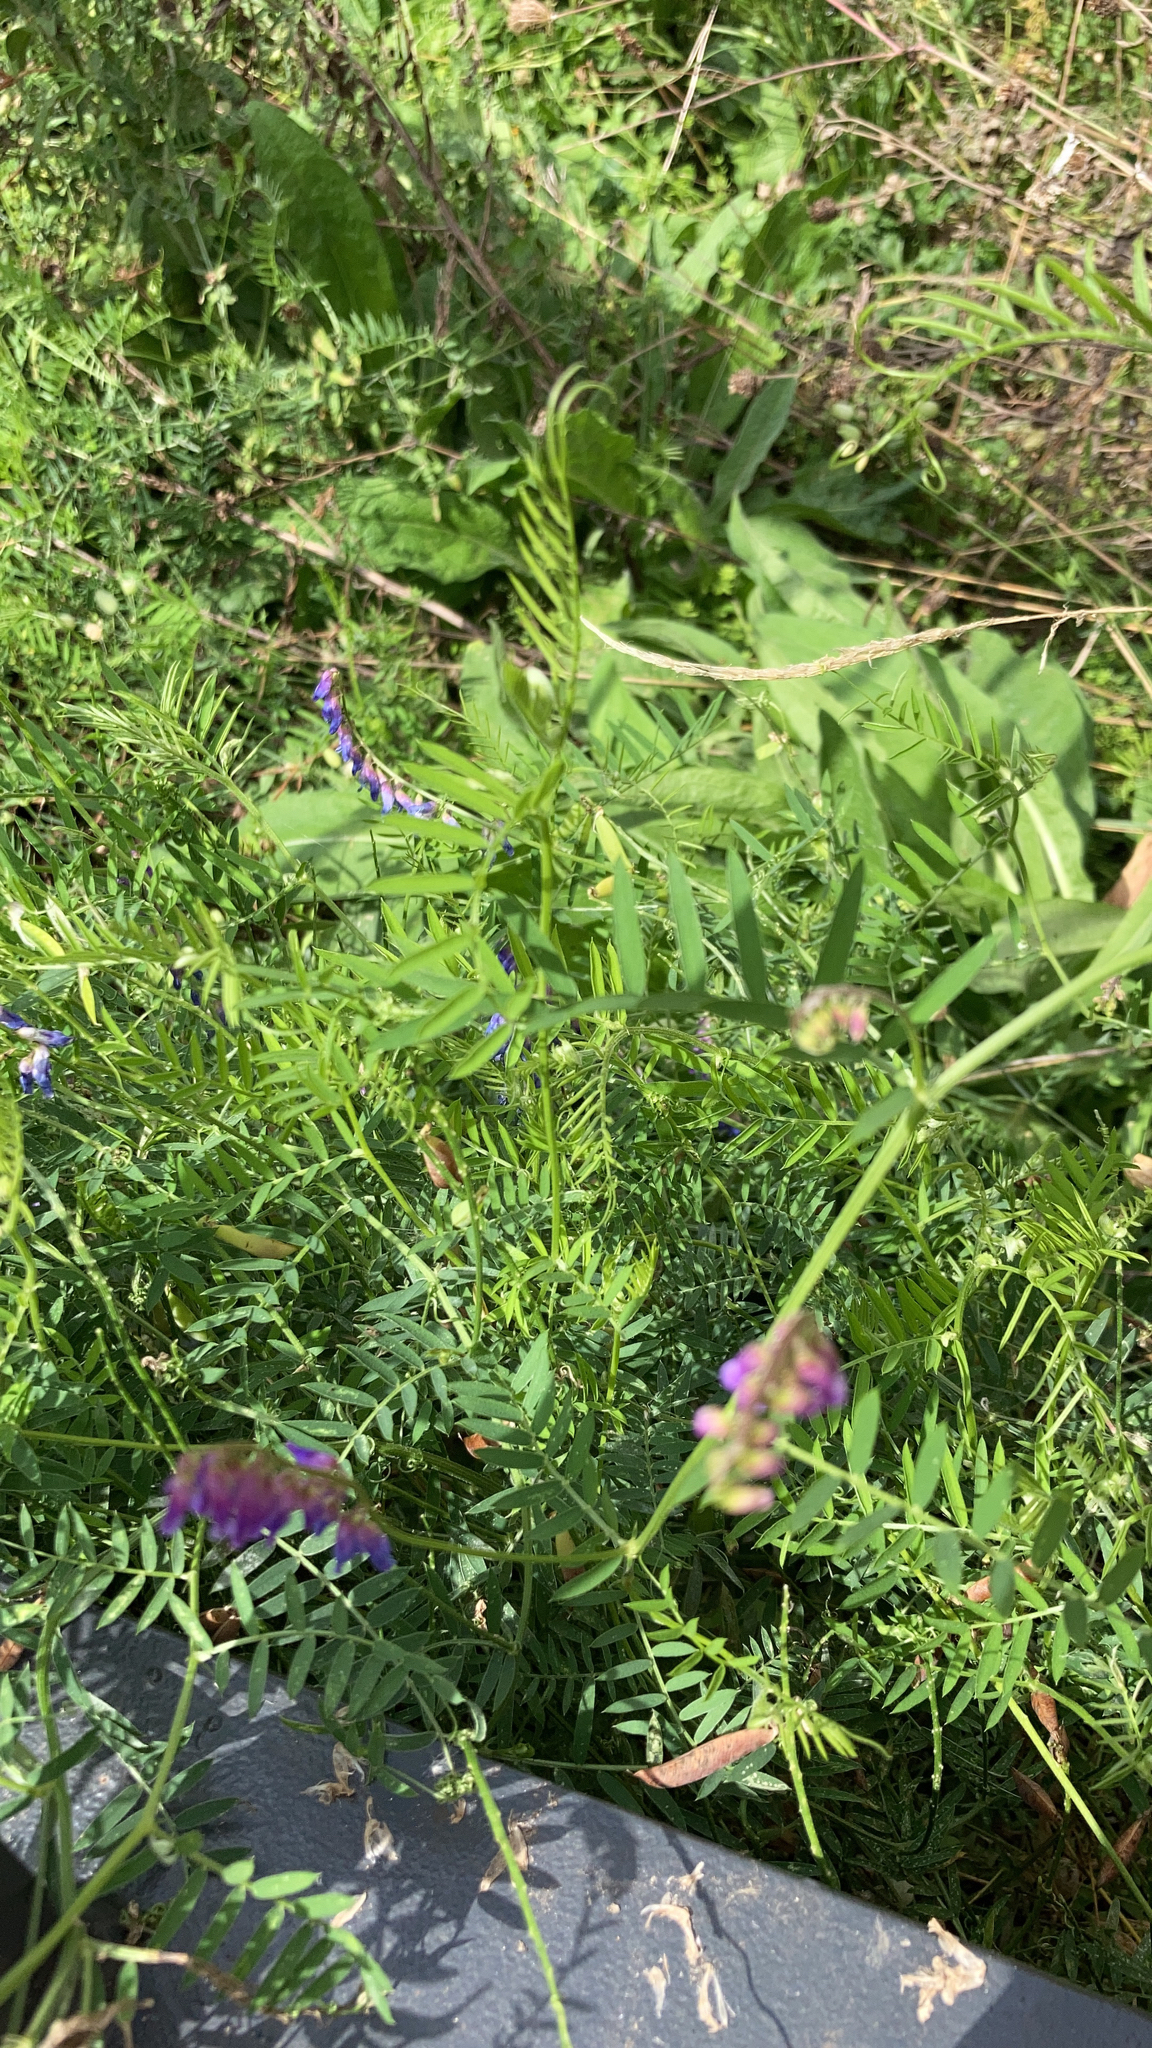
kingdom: Plantae
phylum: Tracheophyta
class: Magnoliopsida
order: Fabales
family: Fabaceae
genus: Vicia
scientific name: Vicia cracca
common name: Bird vetch
